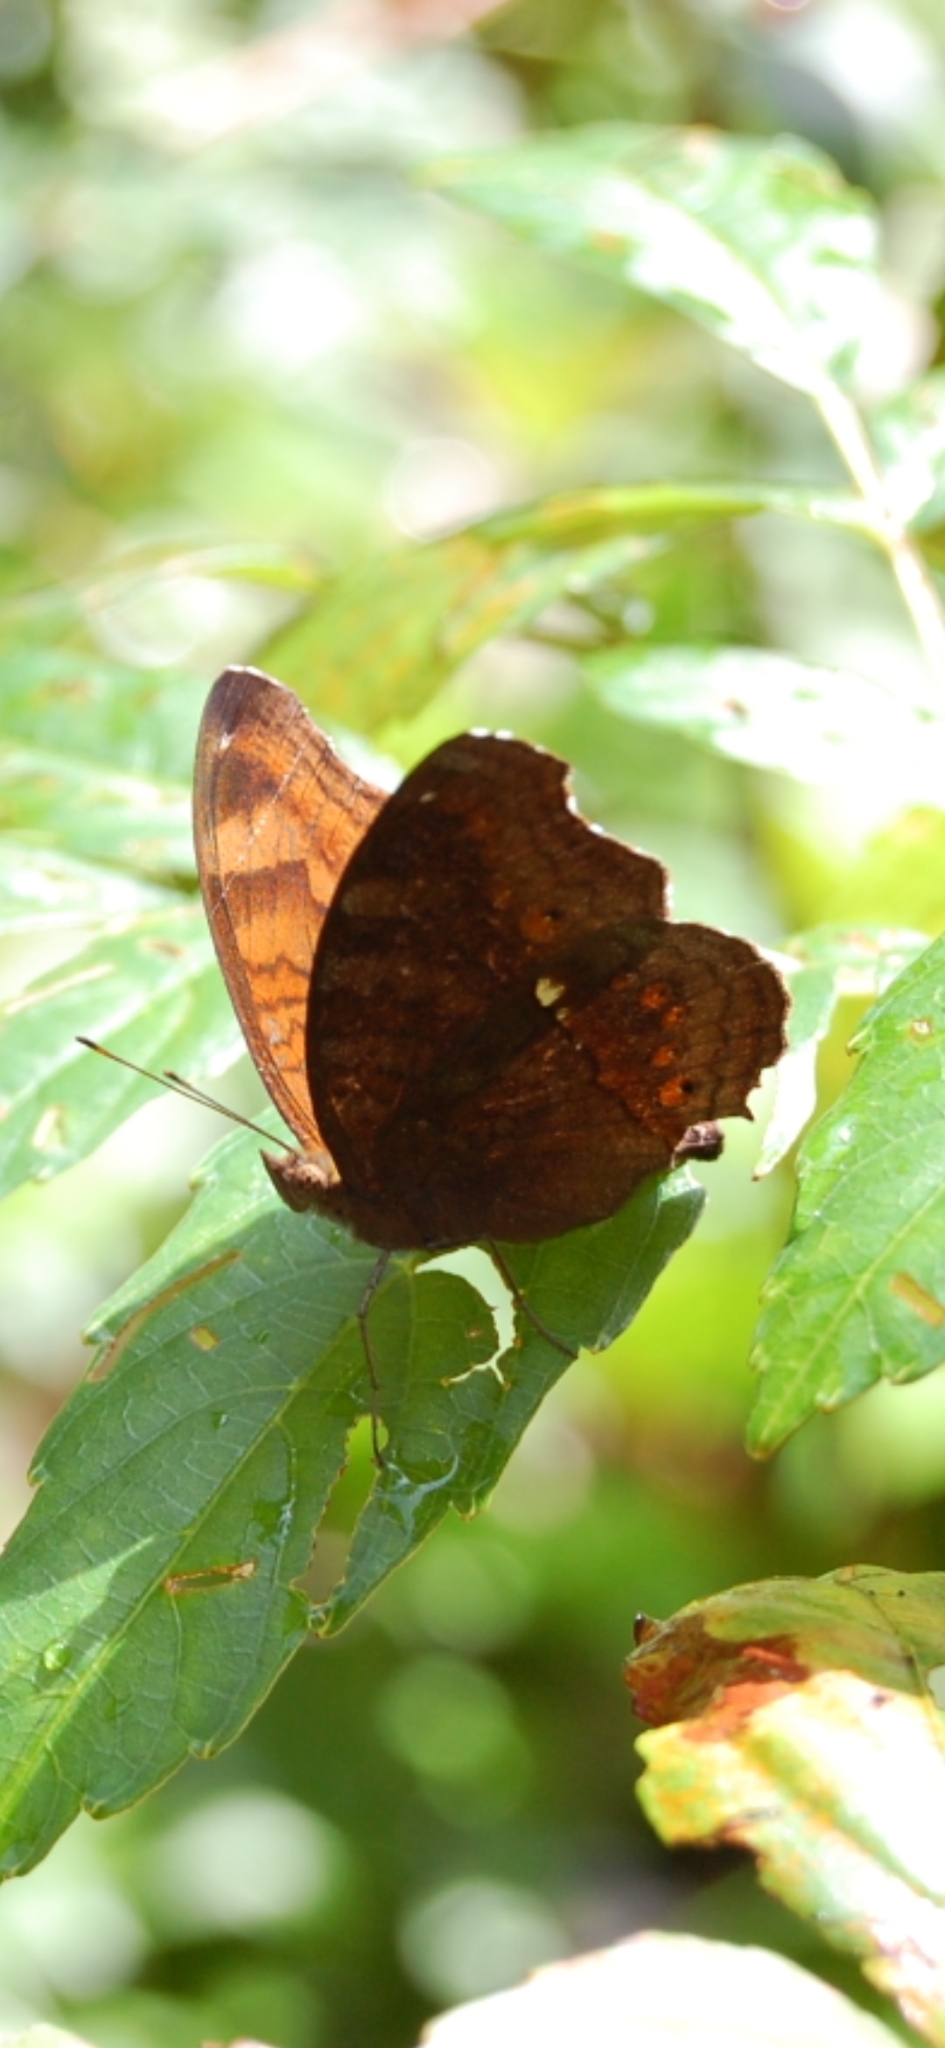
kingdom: Animalia
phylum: Arthropoda
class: Insecta
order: Lepidoptera
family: Nymphalidae
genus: Junonia
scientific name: Junonia hedonia
